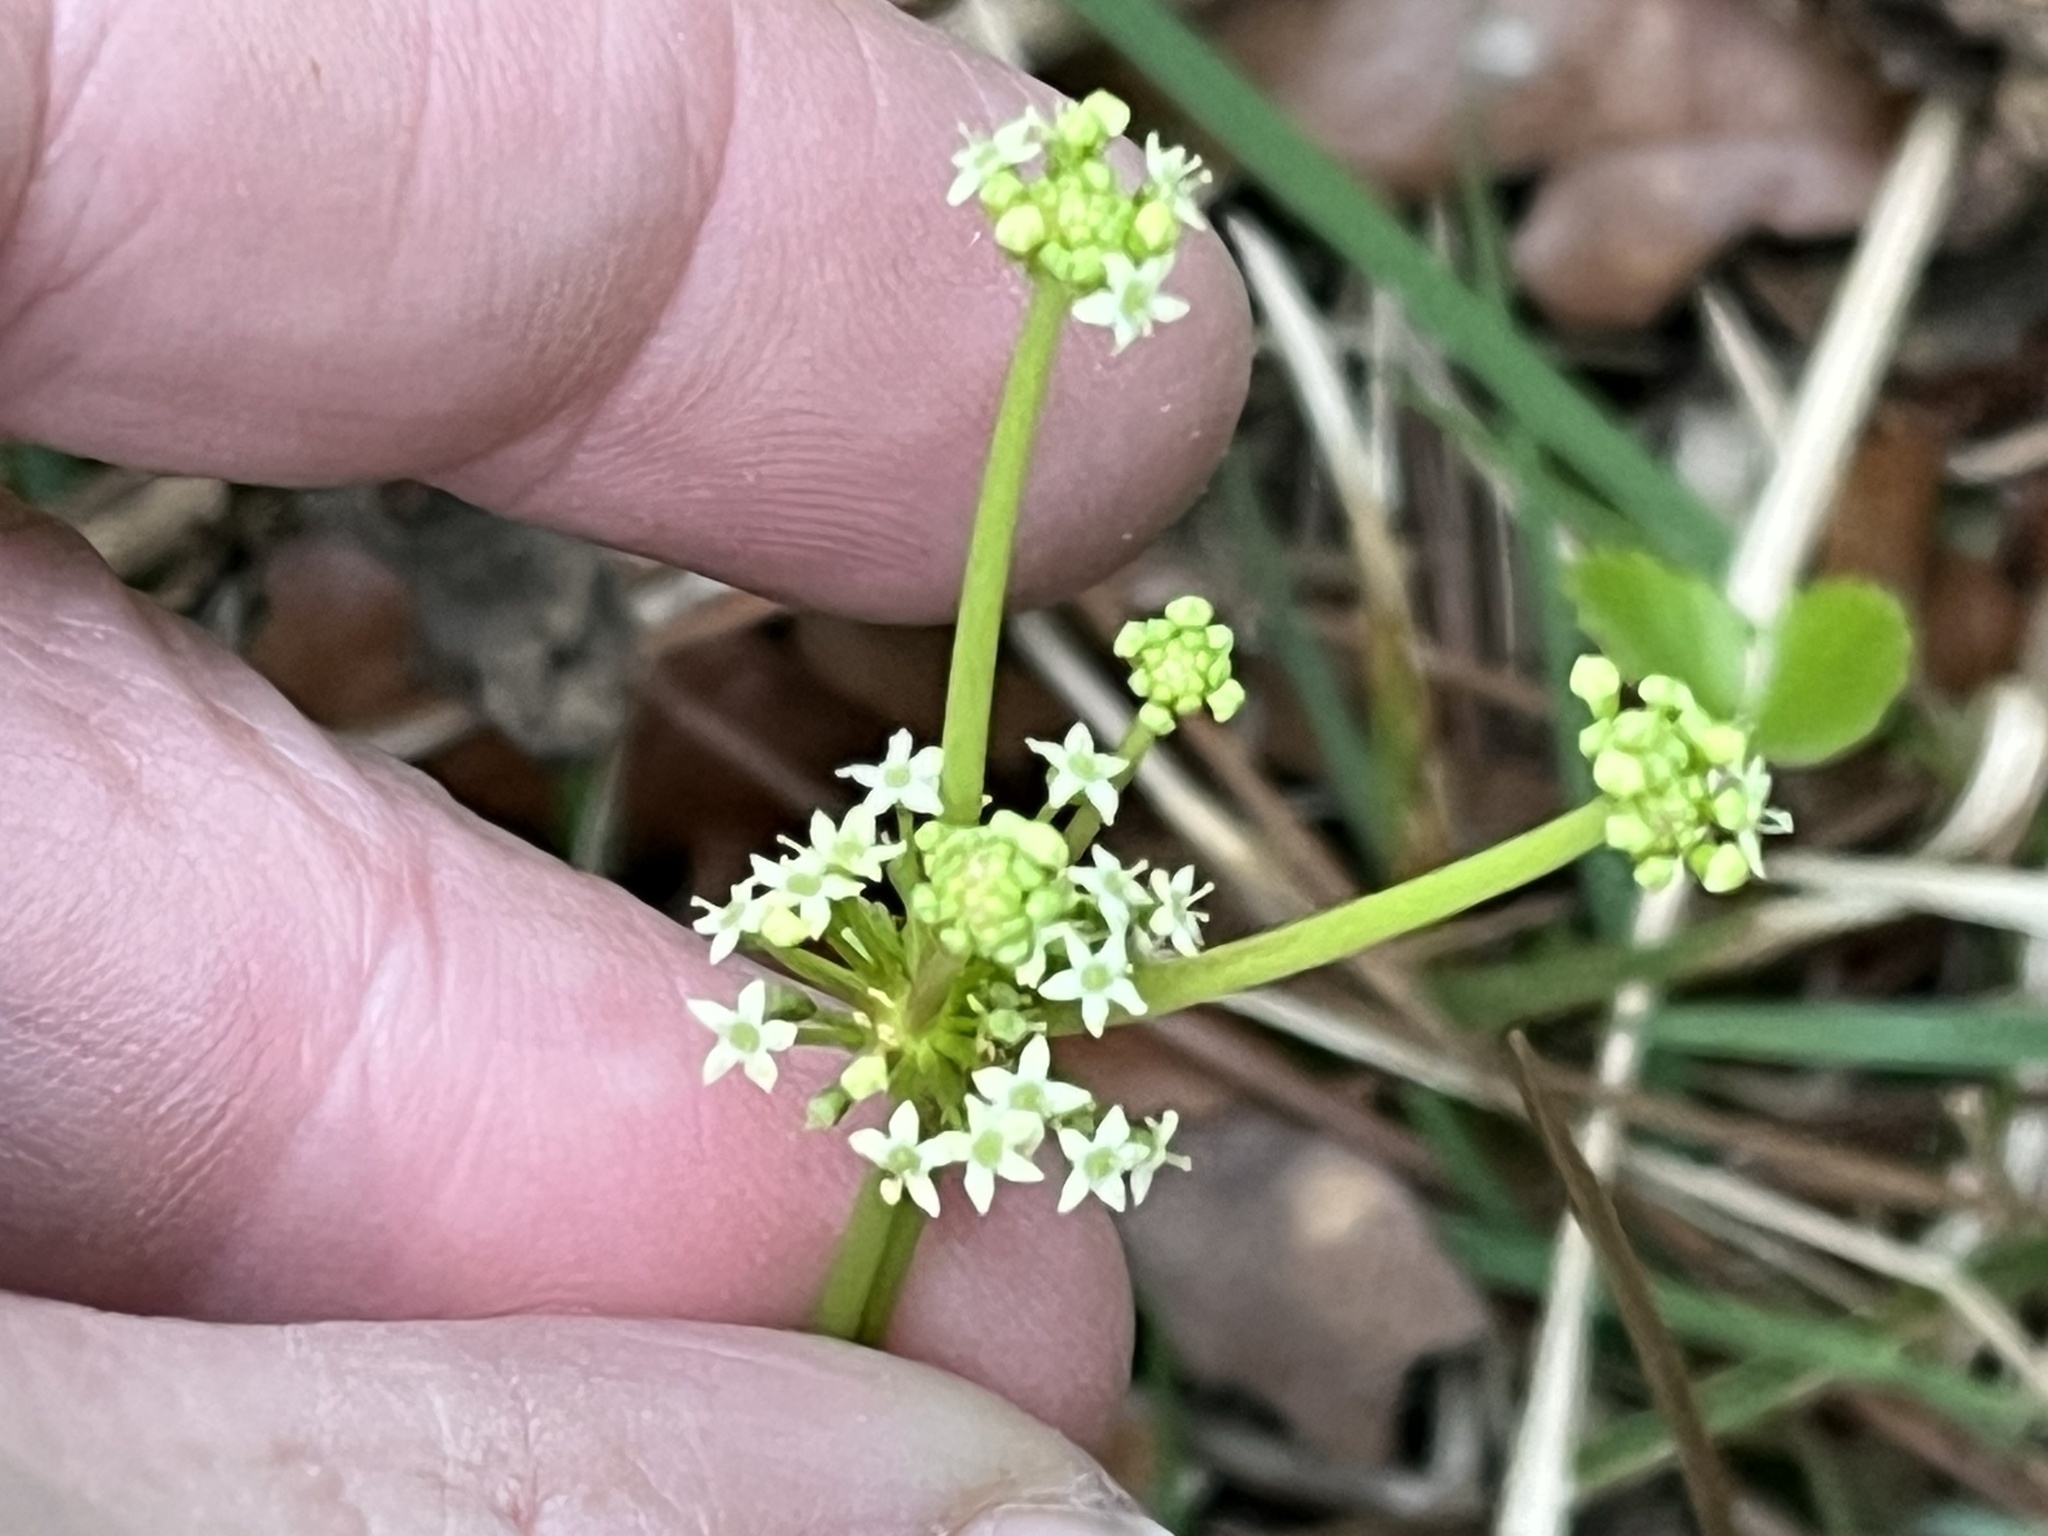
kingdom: Plantae
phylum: Tracheophyta
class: Magnoliopsida
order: Apiales
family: Araliaceae
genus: Hydrocotyle
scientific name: Hydrocotyle bonariensis
